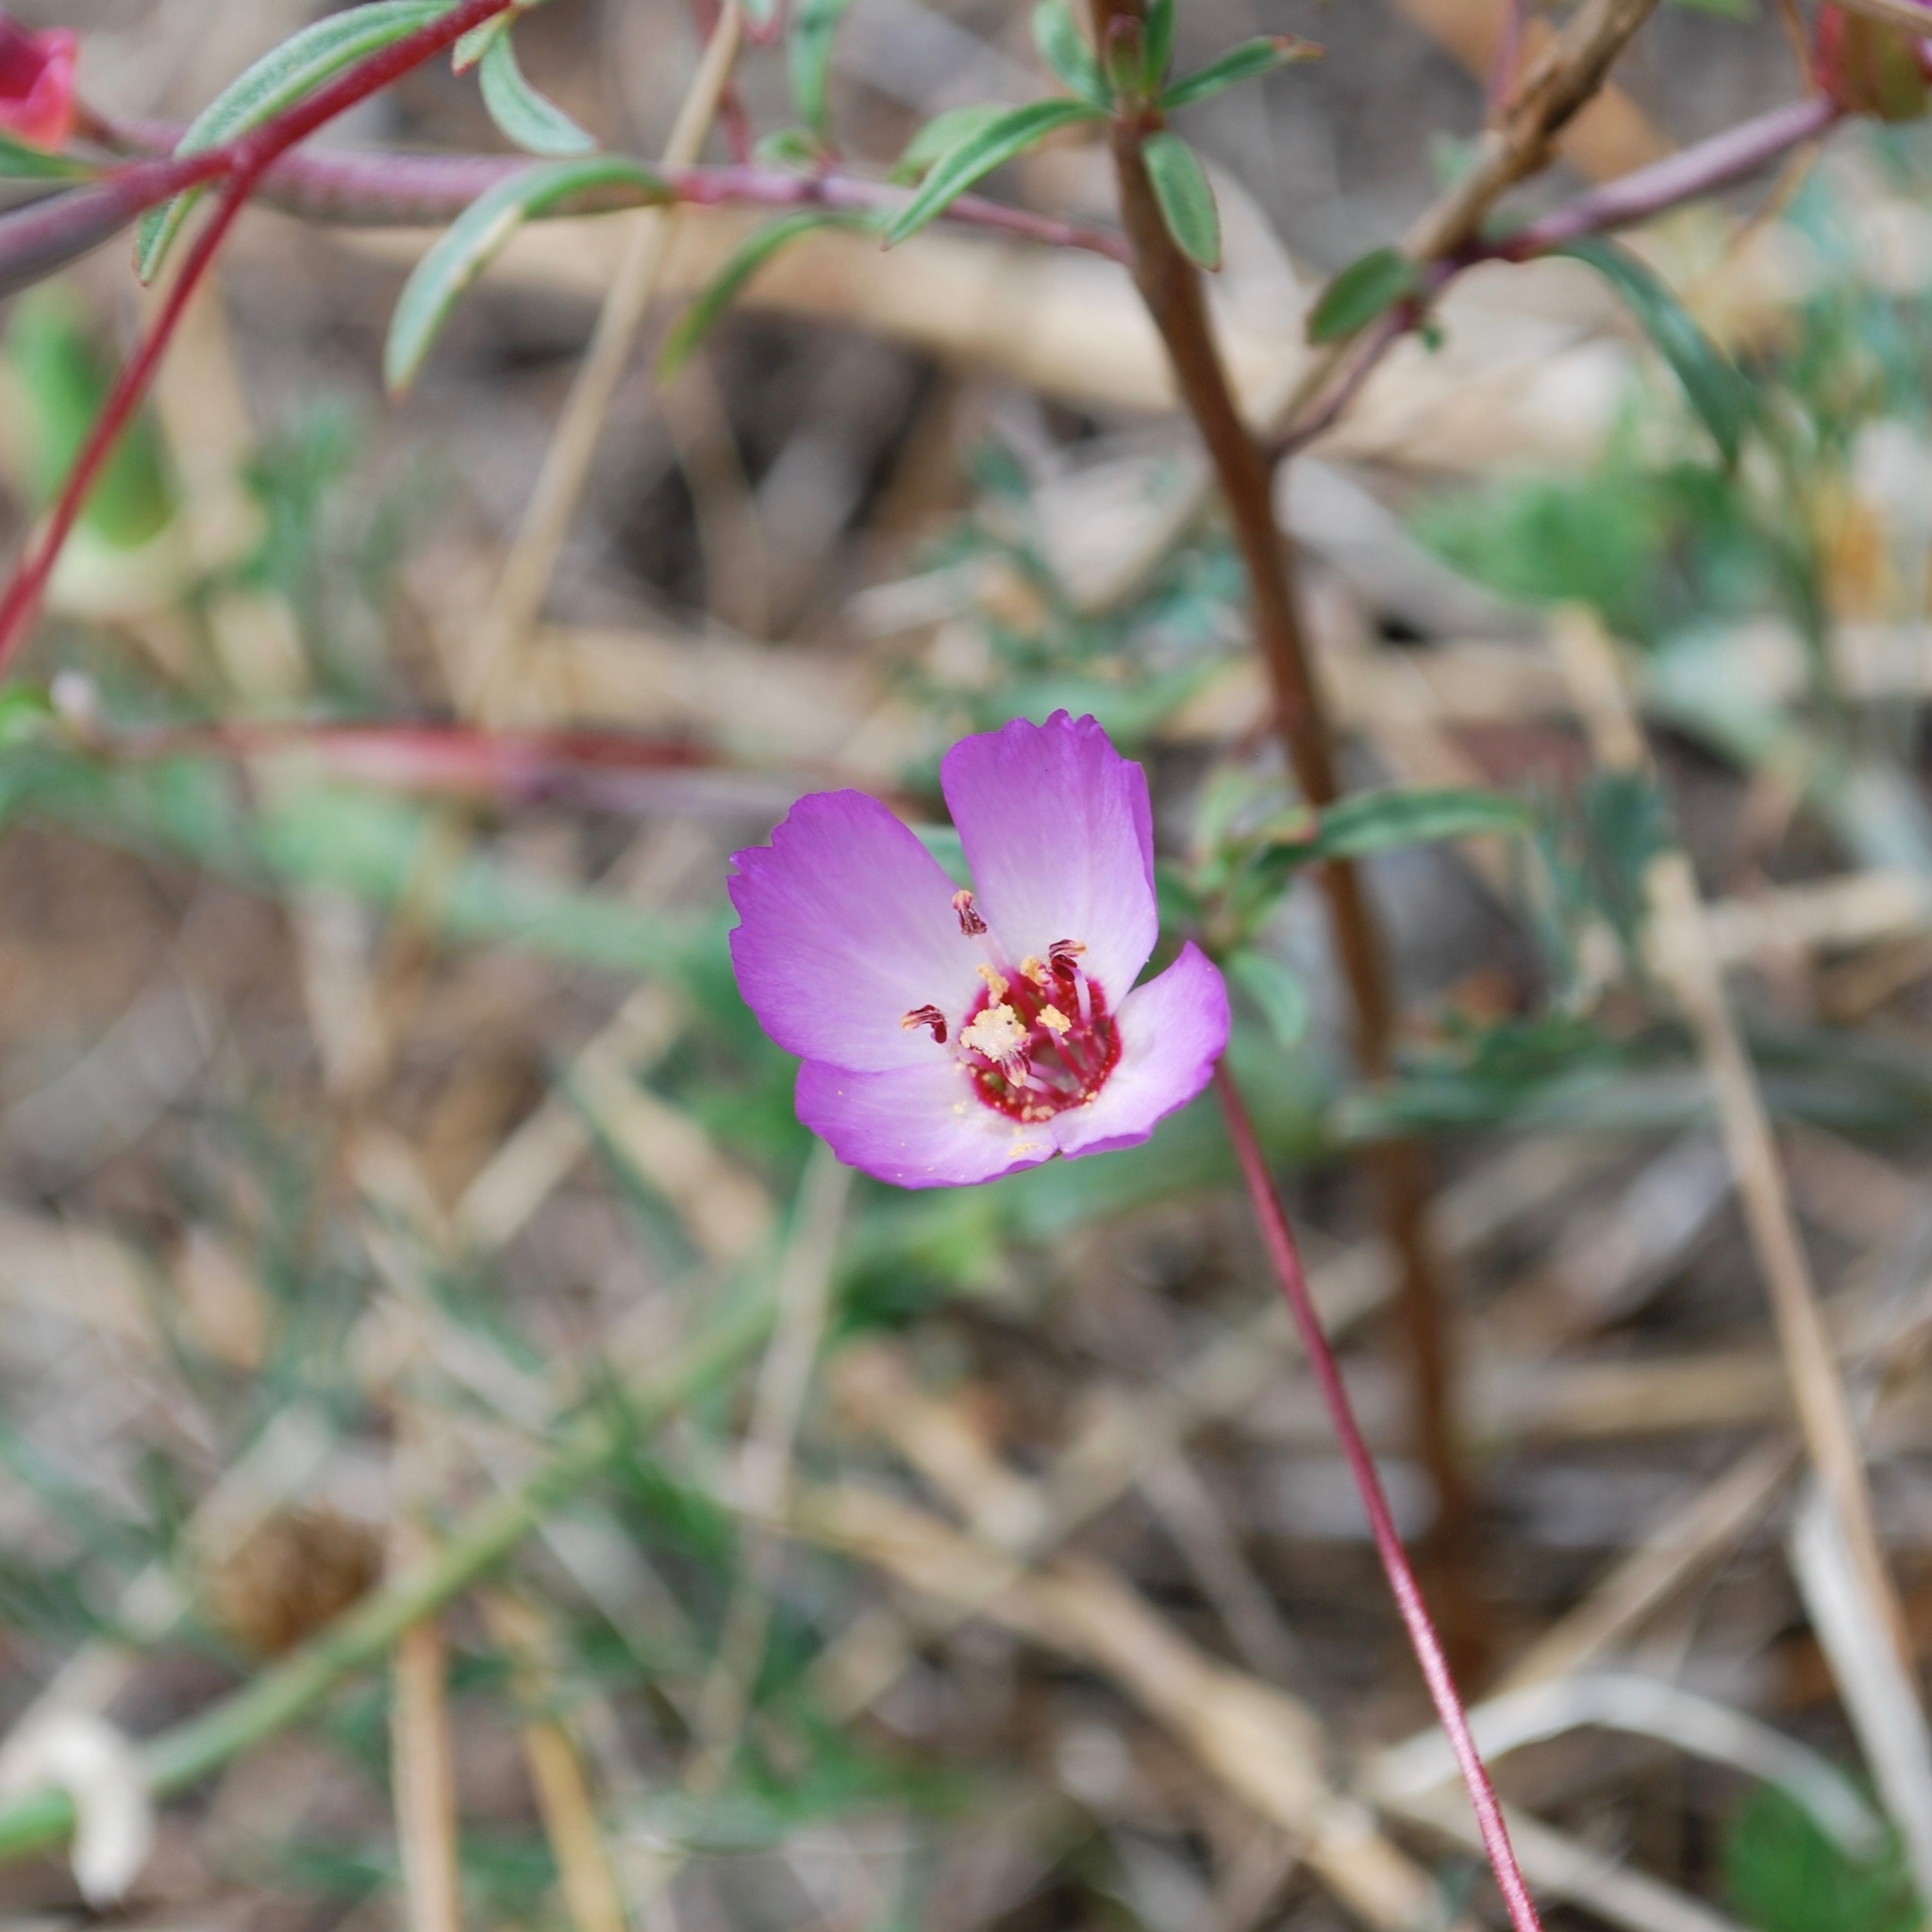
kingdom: Plantae
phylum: Tracheophyta
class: Magnoliopsida
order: Myrtales
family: Onagraceae
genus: Clarkia
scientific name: Clarkia franciscana
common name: Presidio clarkia
